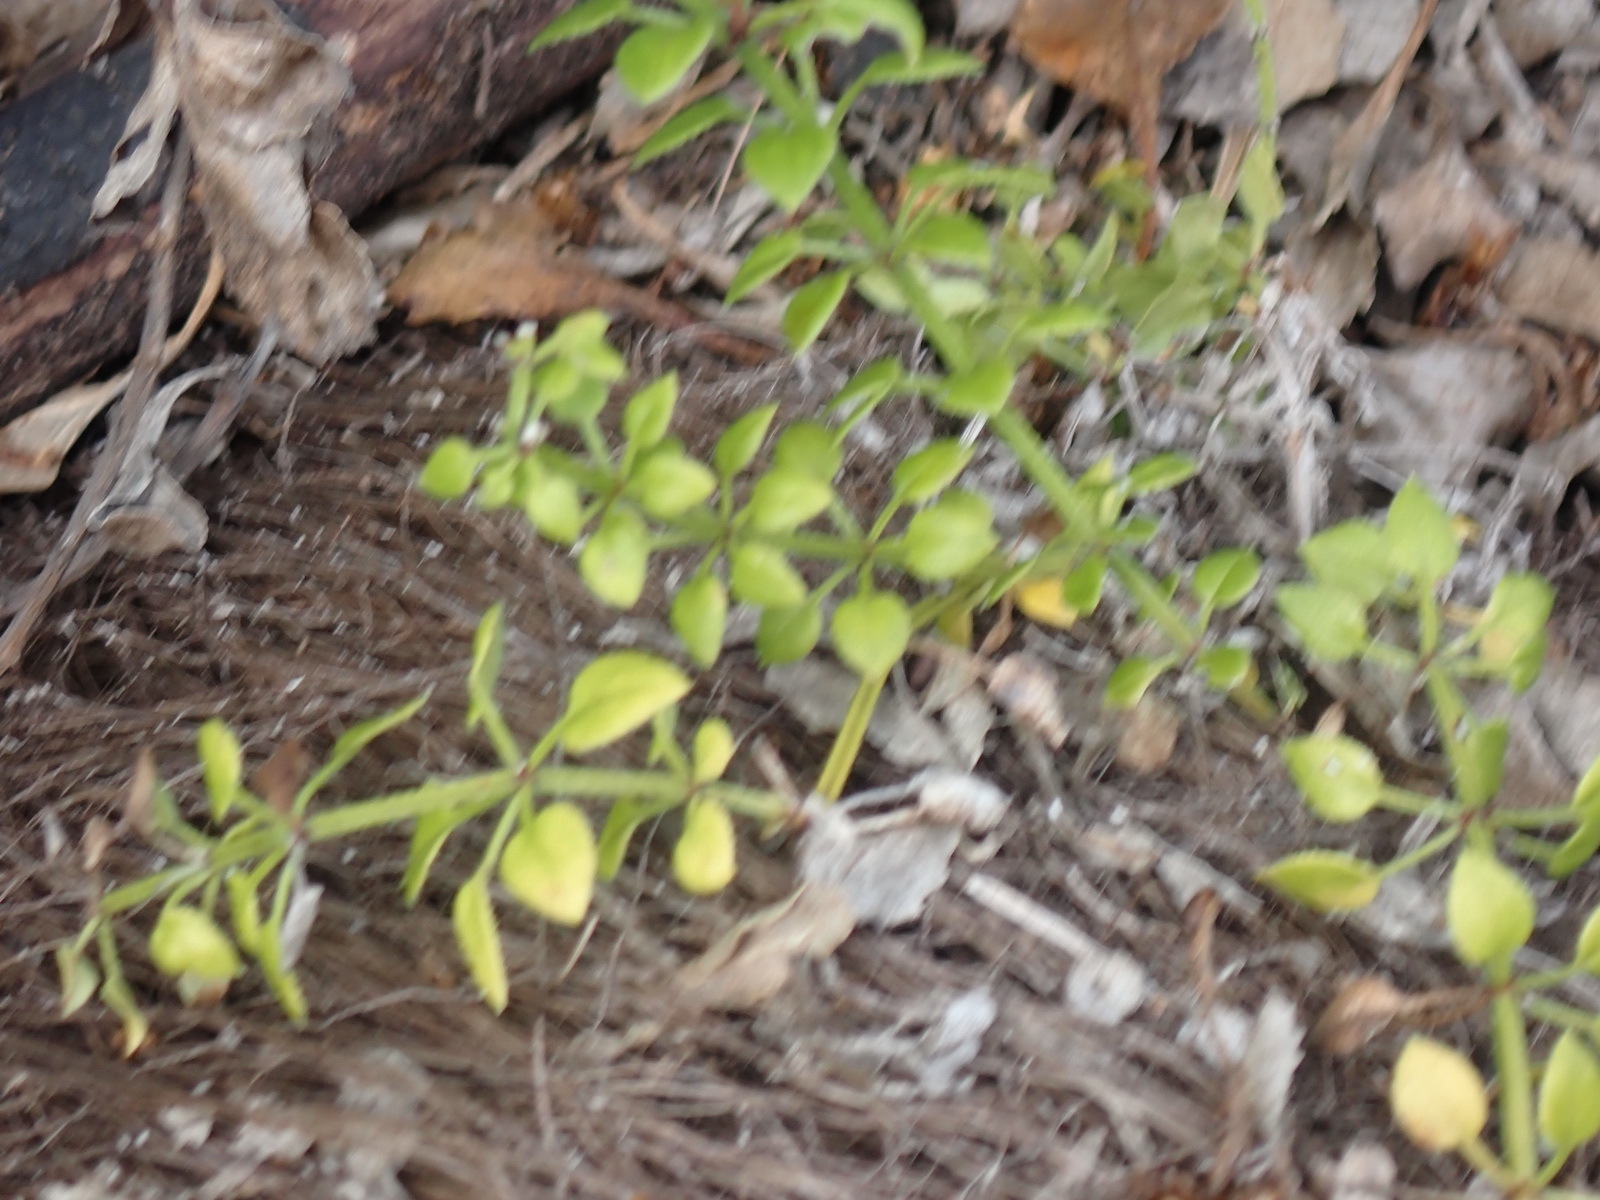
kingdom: Plantae
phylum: Tracheophyta
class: Magnoliopsida
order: Gentianales
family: Rubiaceae
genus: Rubia
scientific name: Rubia petiolaris
